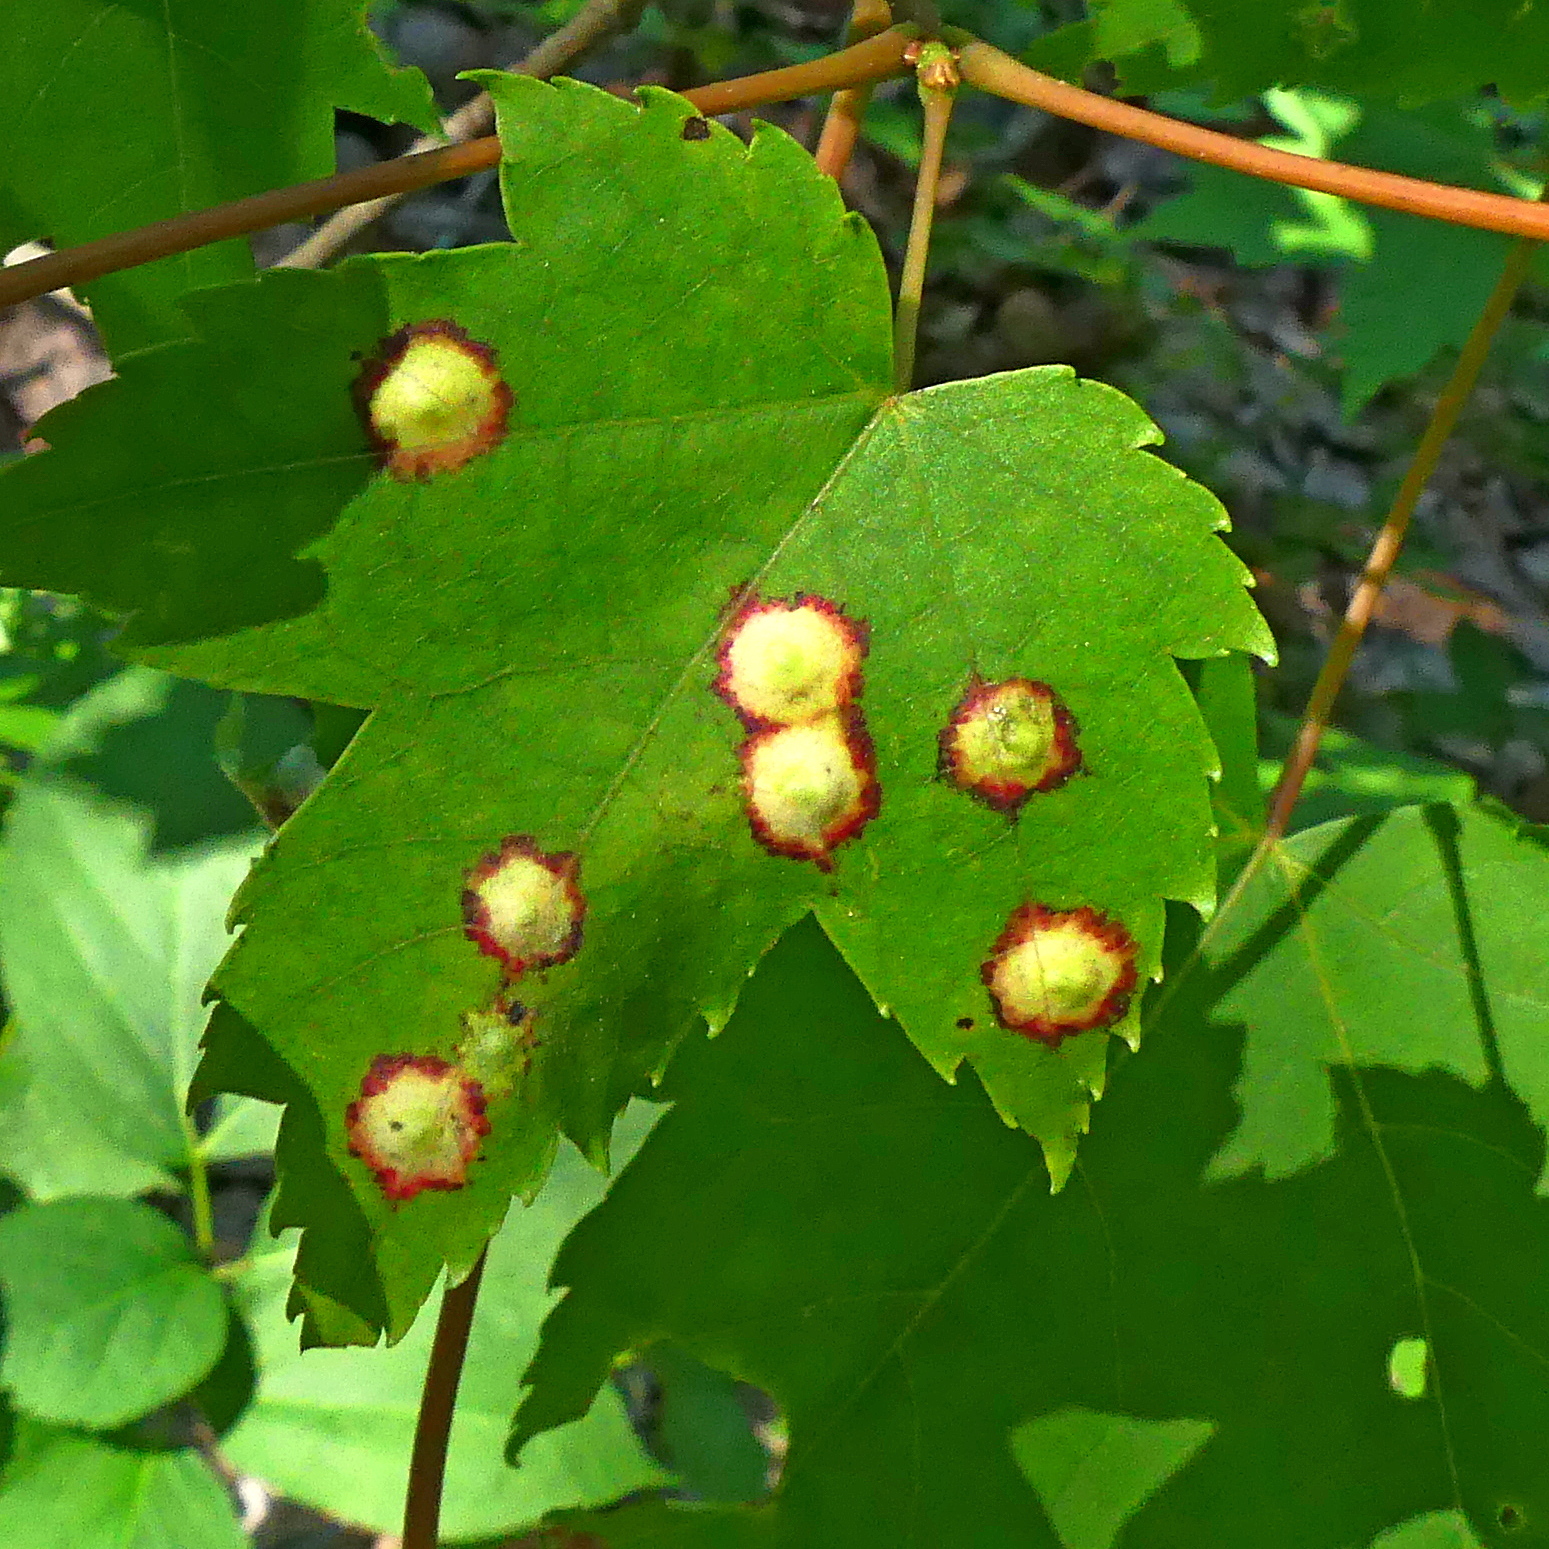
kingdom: Animalia
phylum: Arthropoda
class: Insecta
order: Diptera
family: Cecidomyiidae
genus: Acericecis
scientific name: Acericecis ocellaris
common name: Ocellate gall midge
